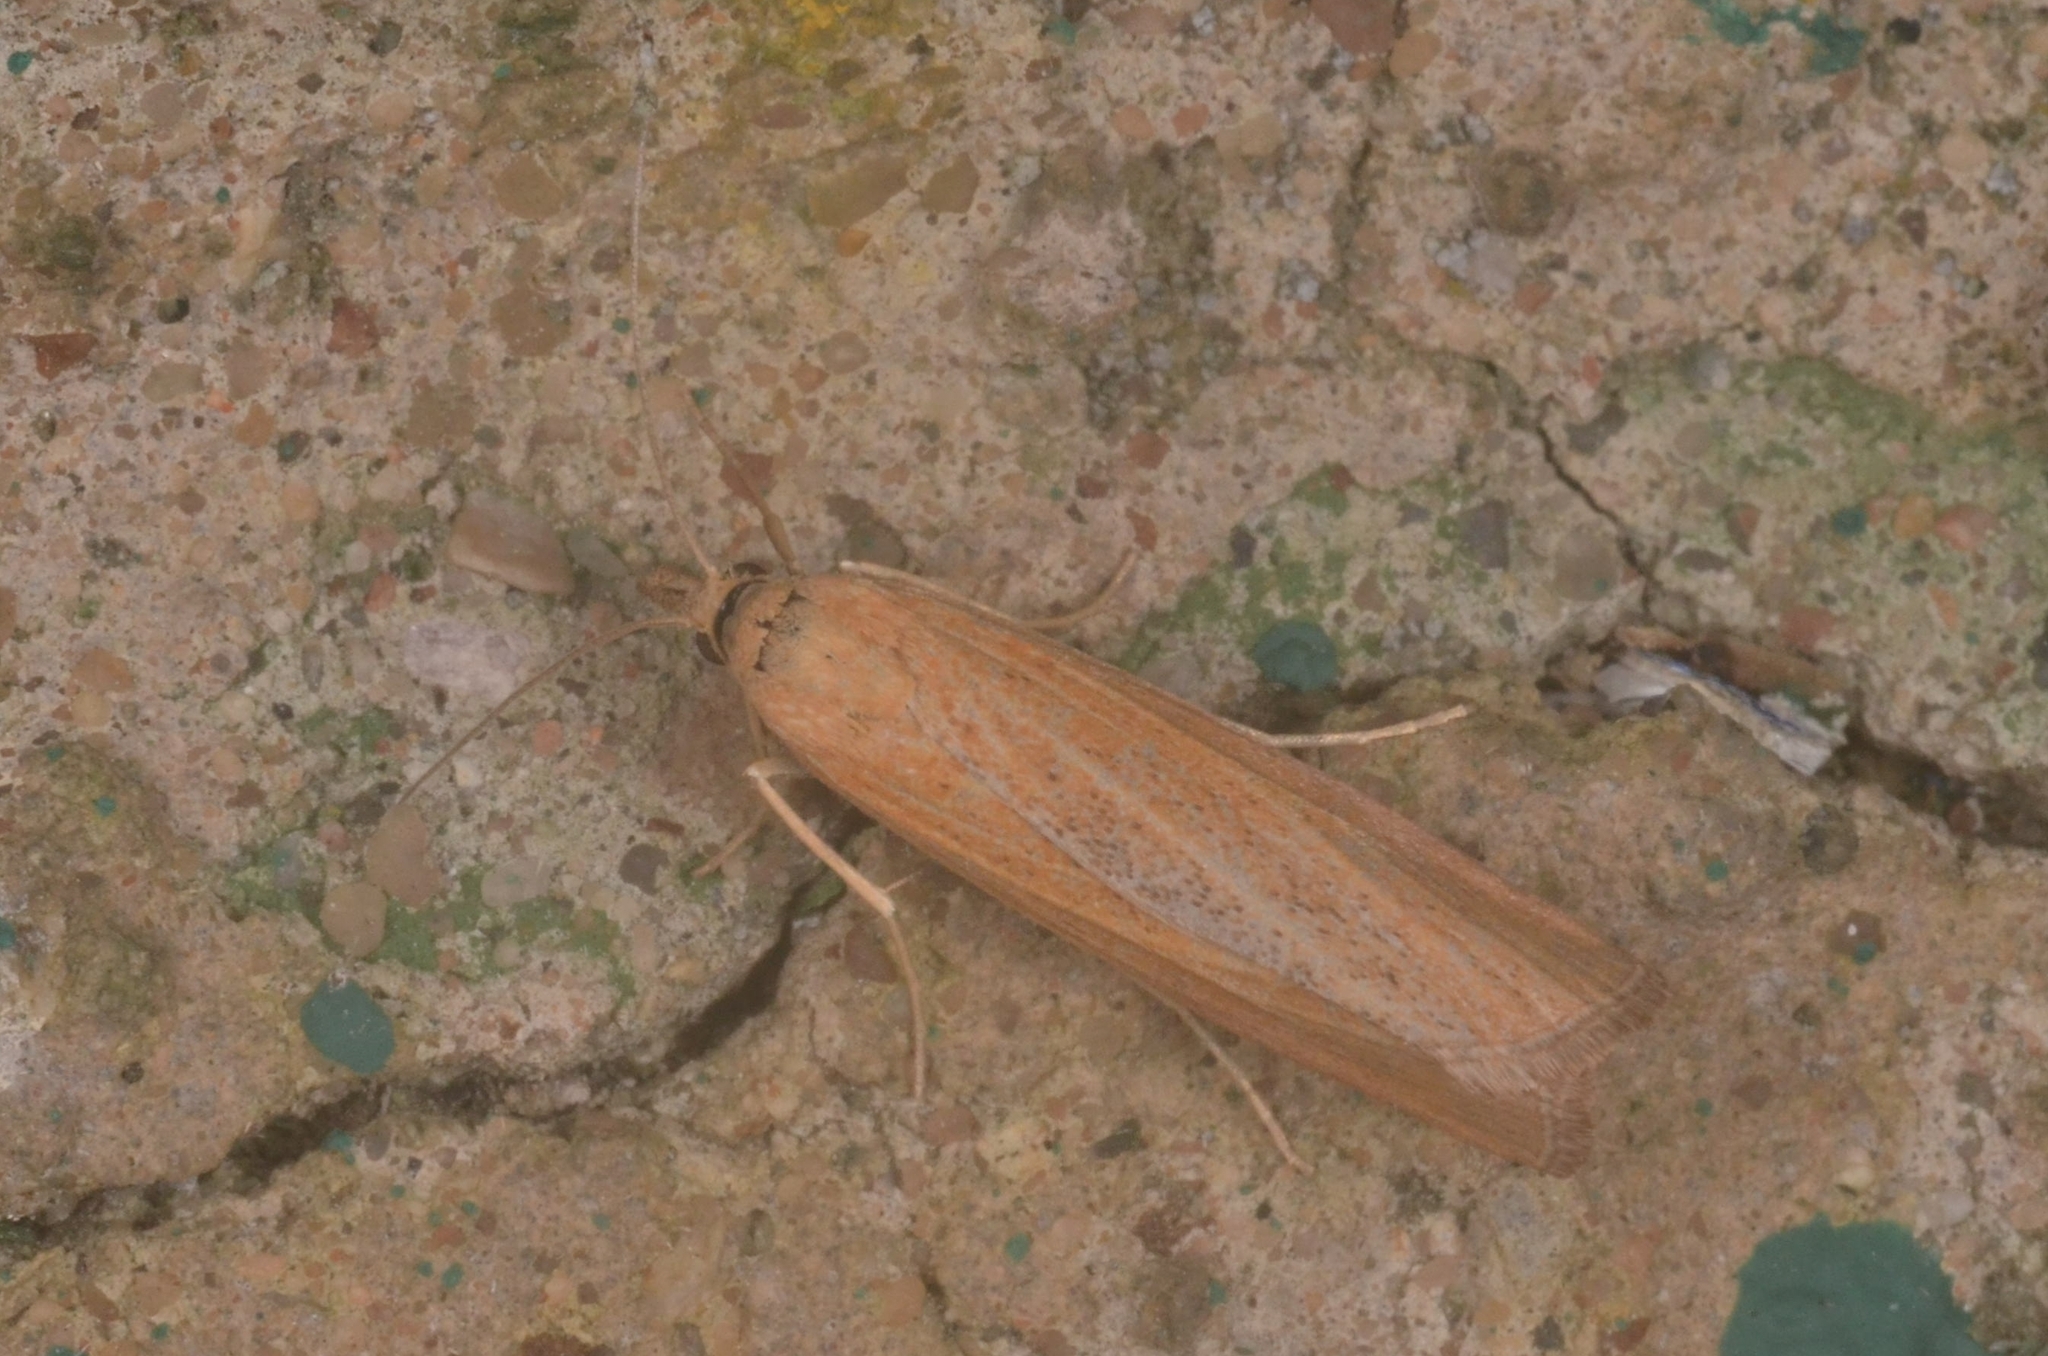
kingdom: Animalia
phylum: Arthropoda
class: Insecta
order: Lepidoptera
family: Crambidae
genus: Pediasia
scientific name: Pediasia luteella
